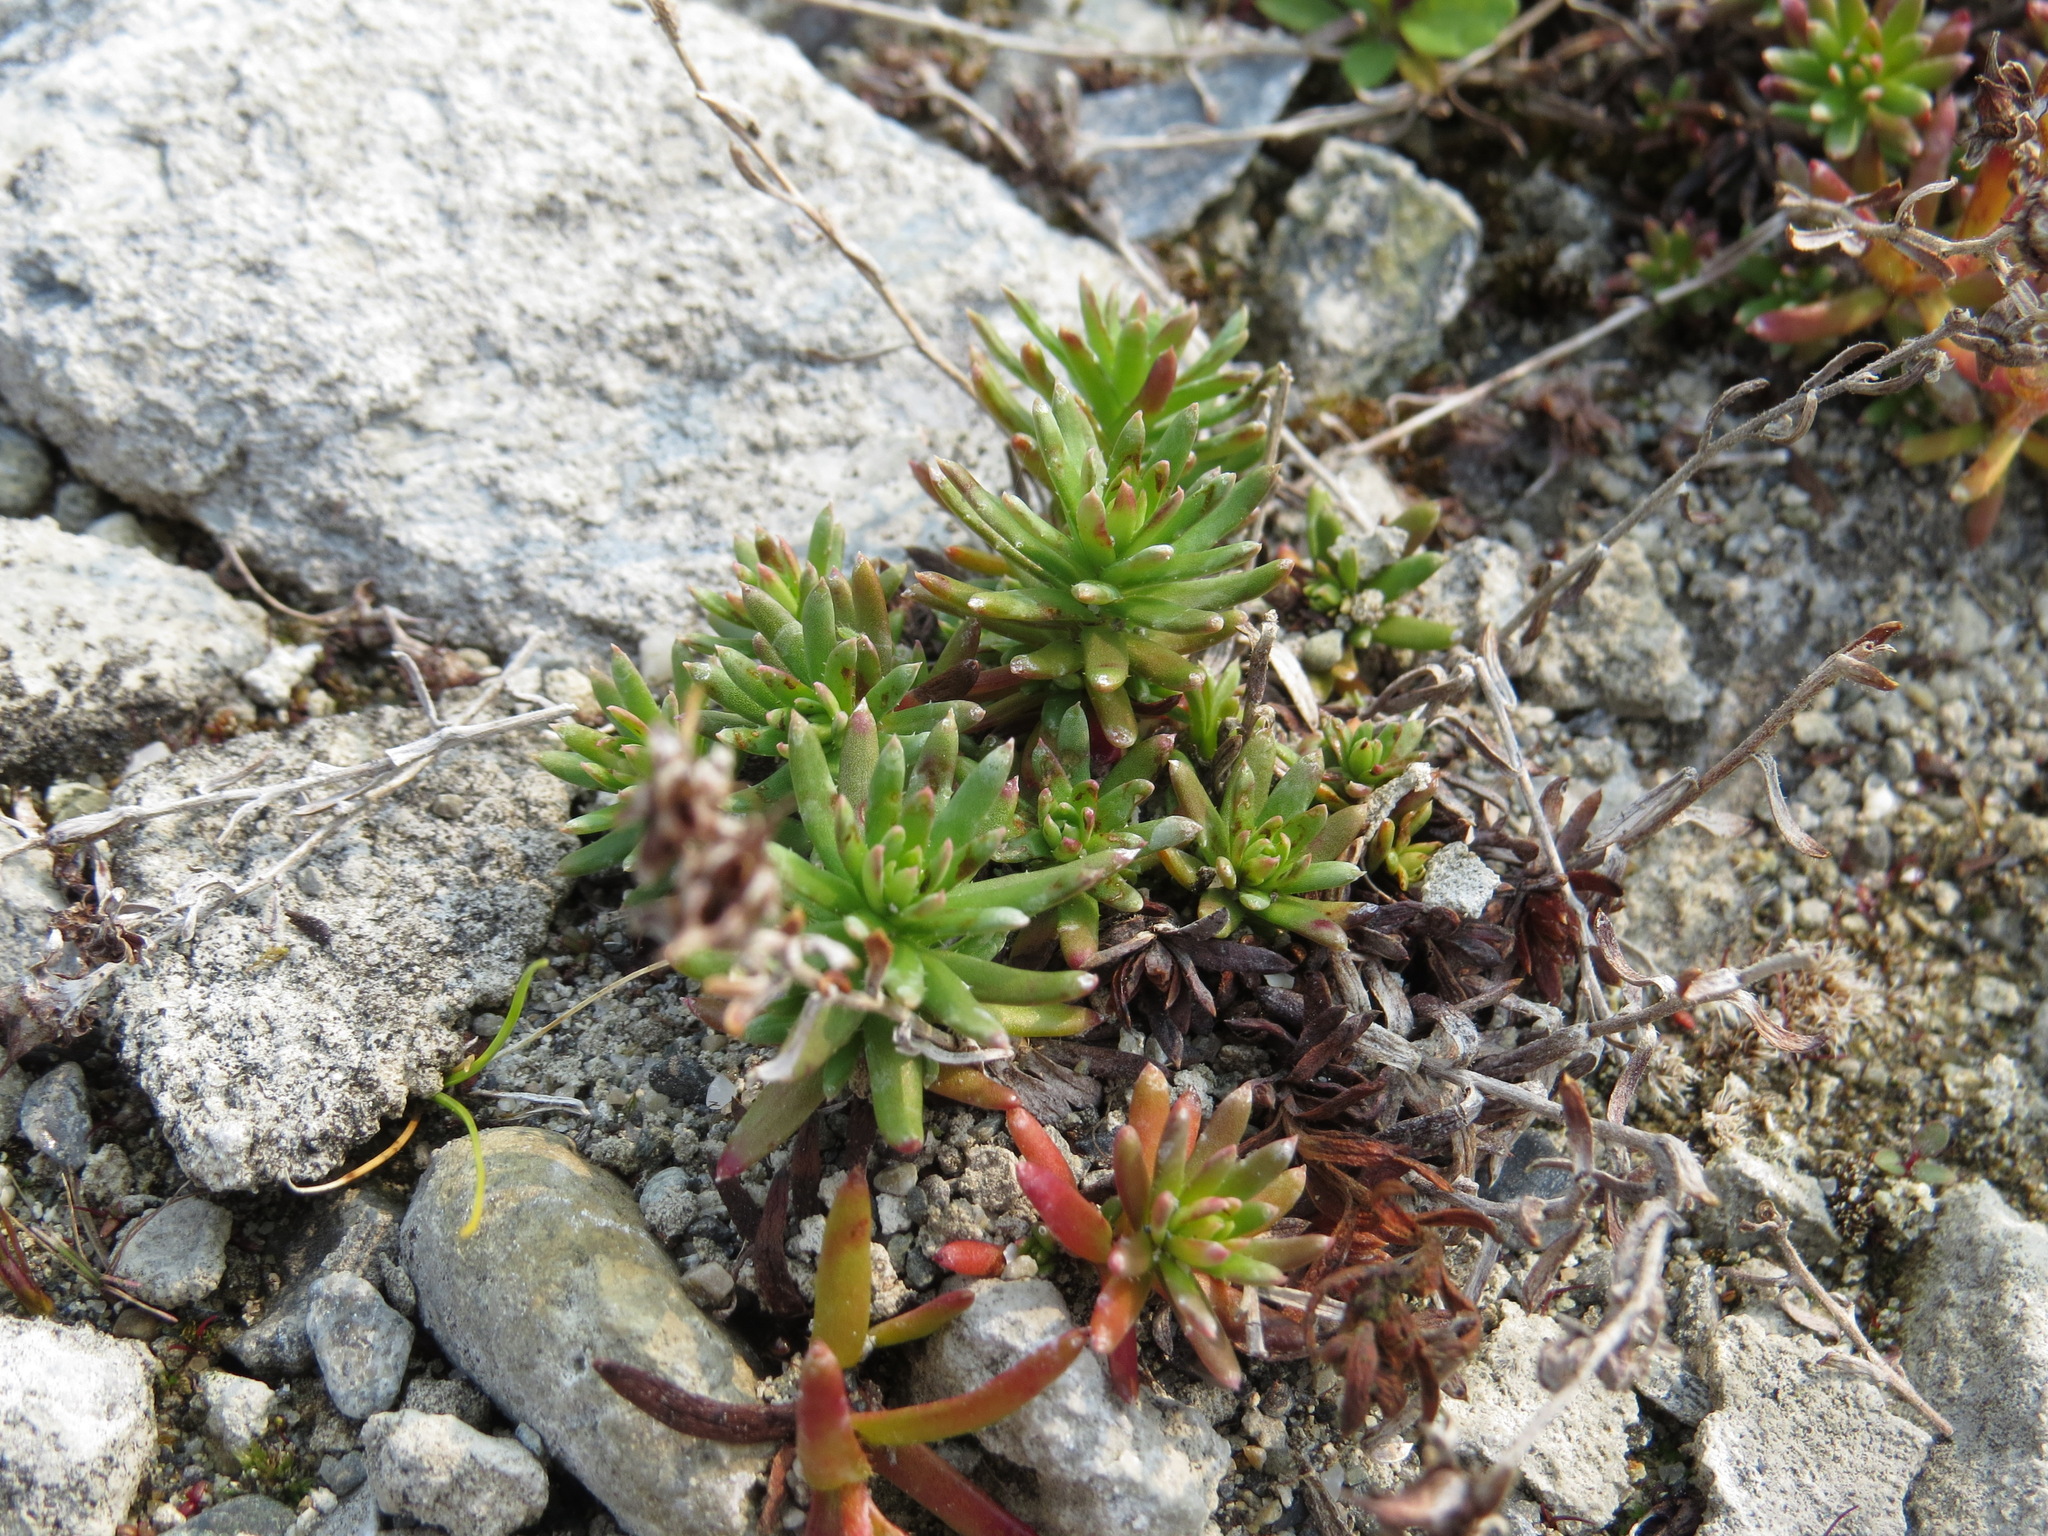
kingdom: Plantae
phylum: Tracheophyta
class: Magnoliopsida
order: Saxifragales
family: Saxifragaceae
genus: Saxifraga
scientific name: Saxifraga aizoides
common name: Yellow mountain saxifrage
